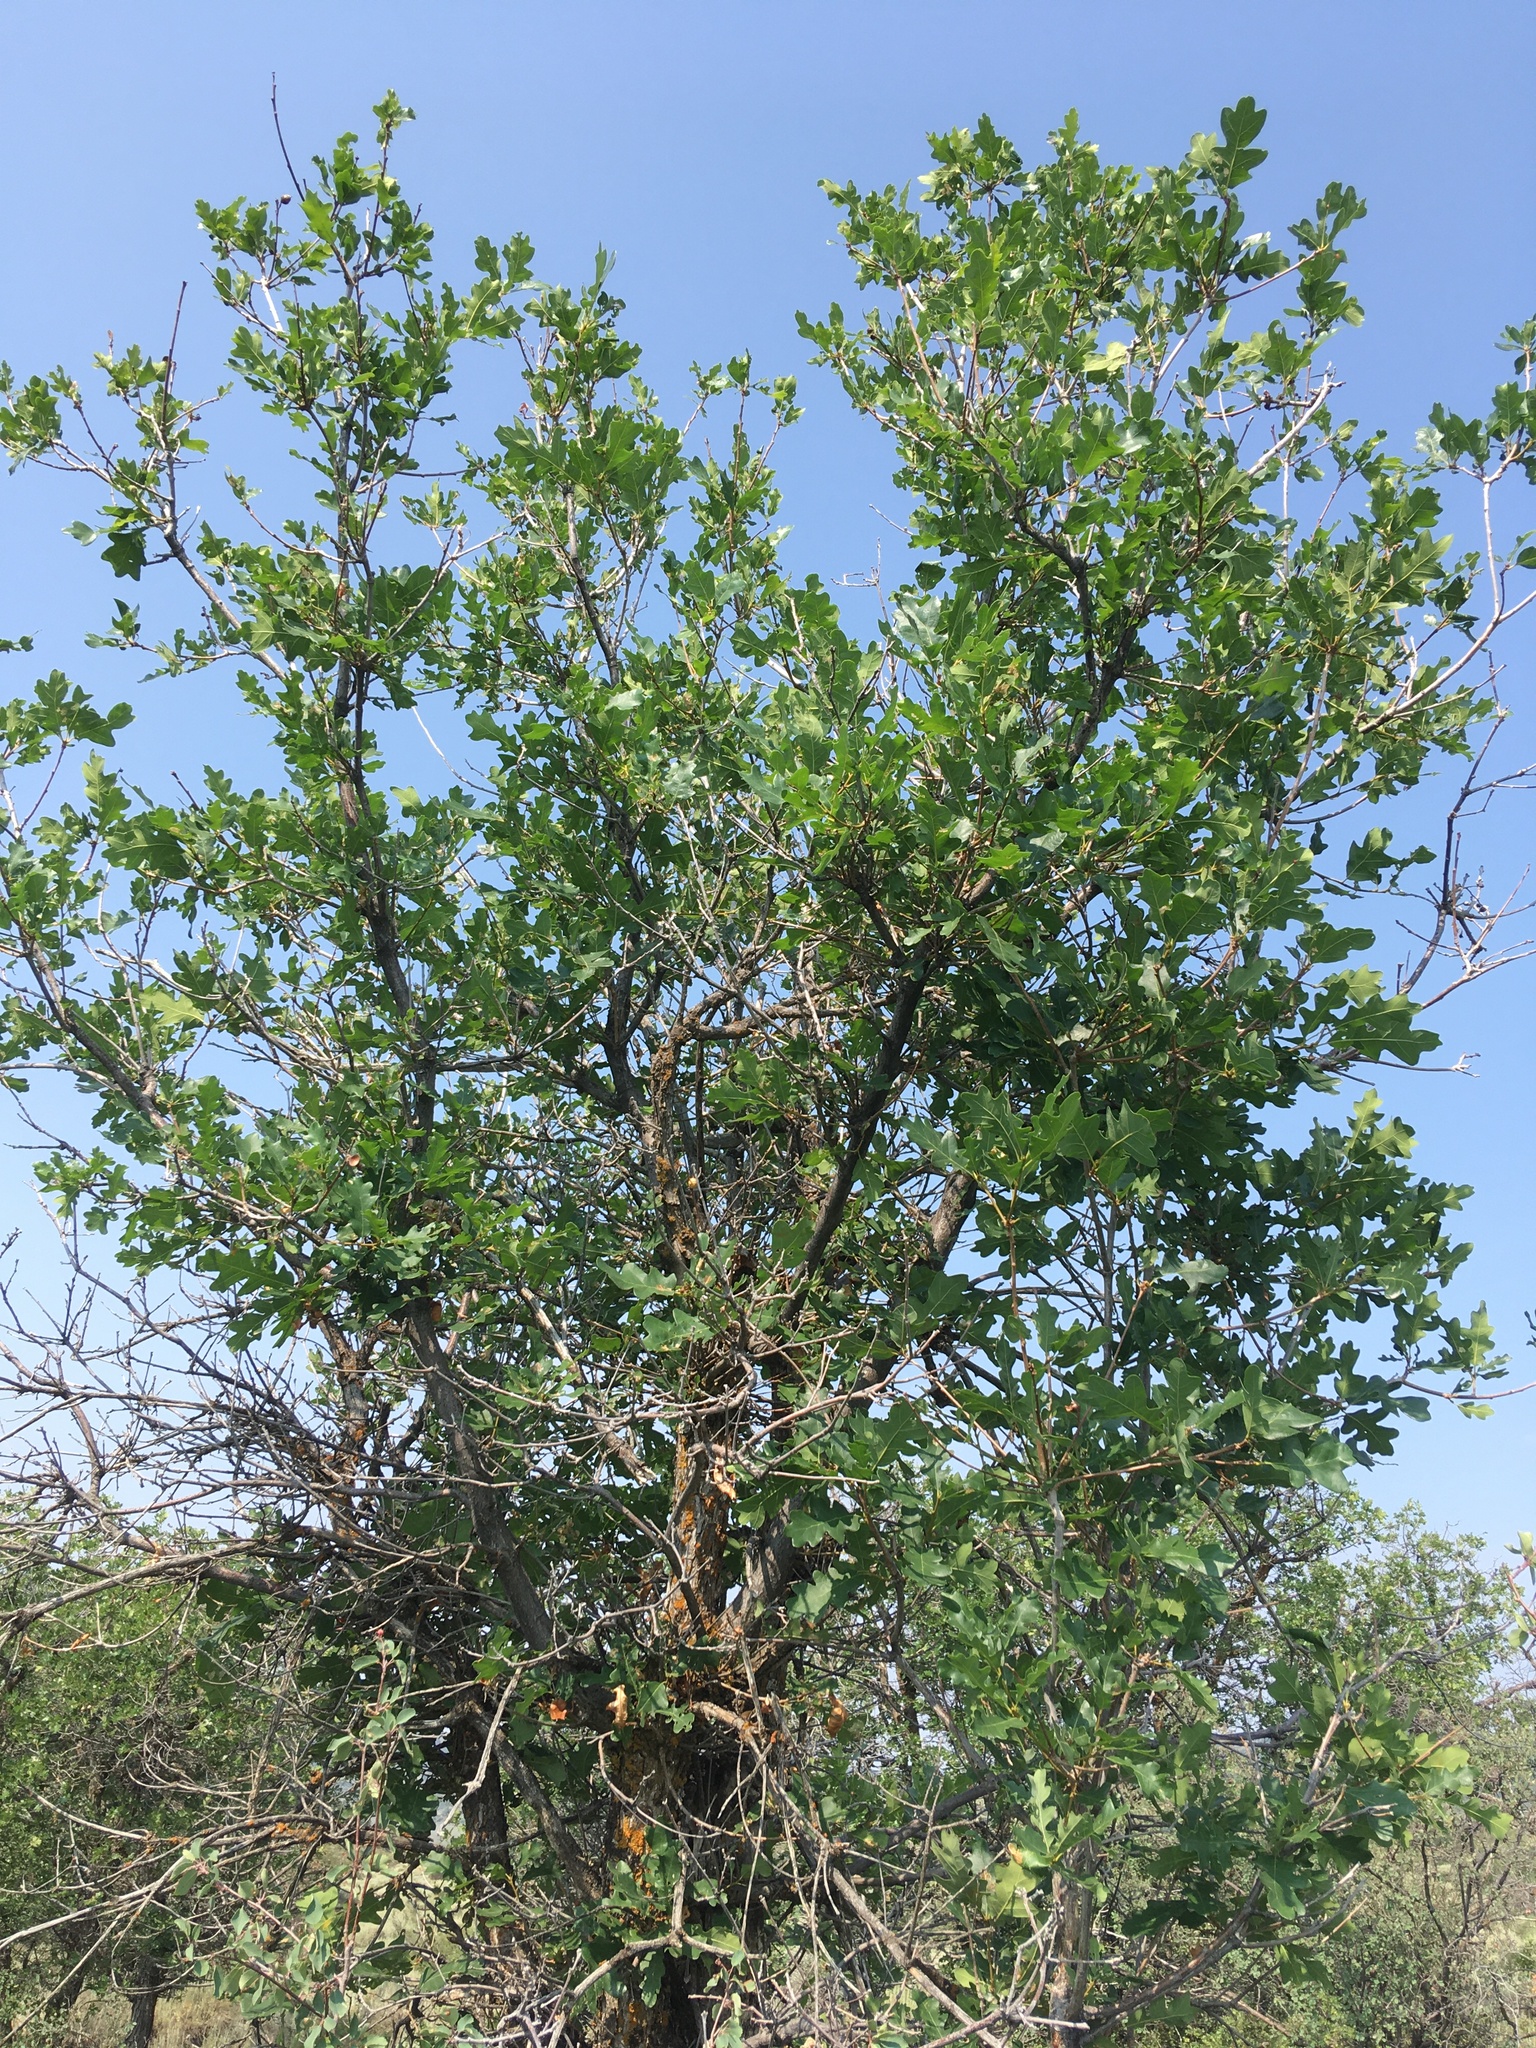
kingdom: Plantae
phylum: Tracheophyta
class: Magnoliopsida
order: Fagales
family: Fagaceae
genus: Quercus
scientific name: Quercus gambelii
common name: Gambel oak
